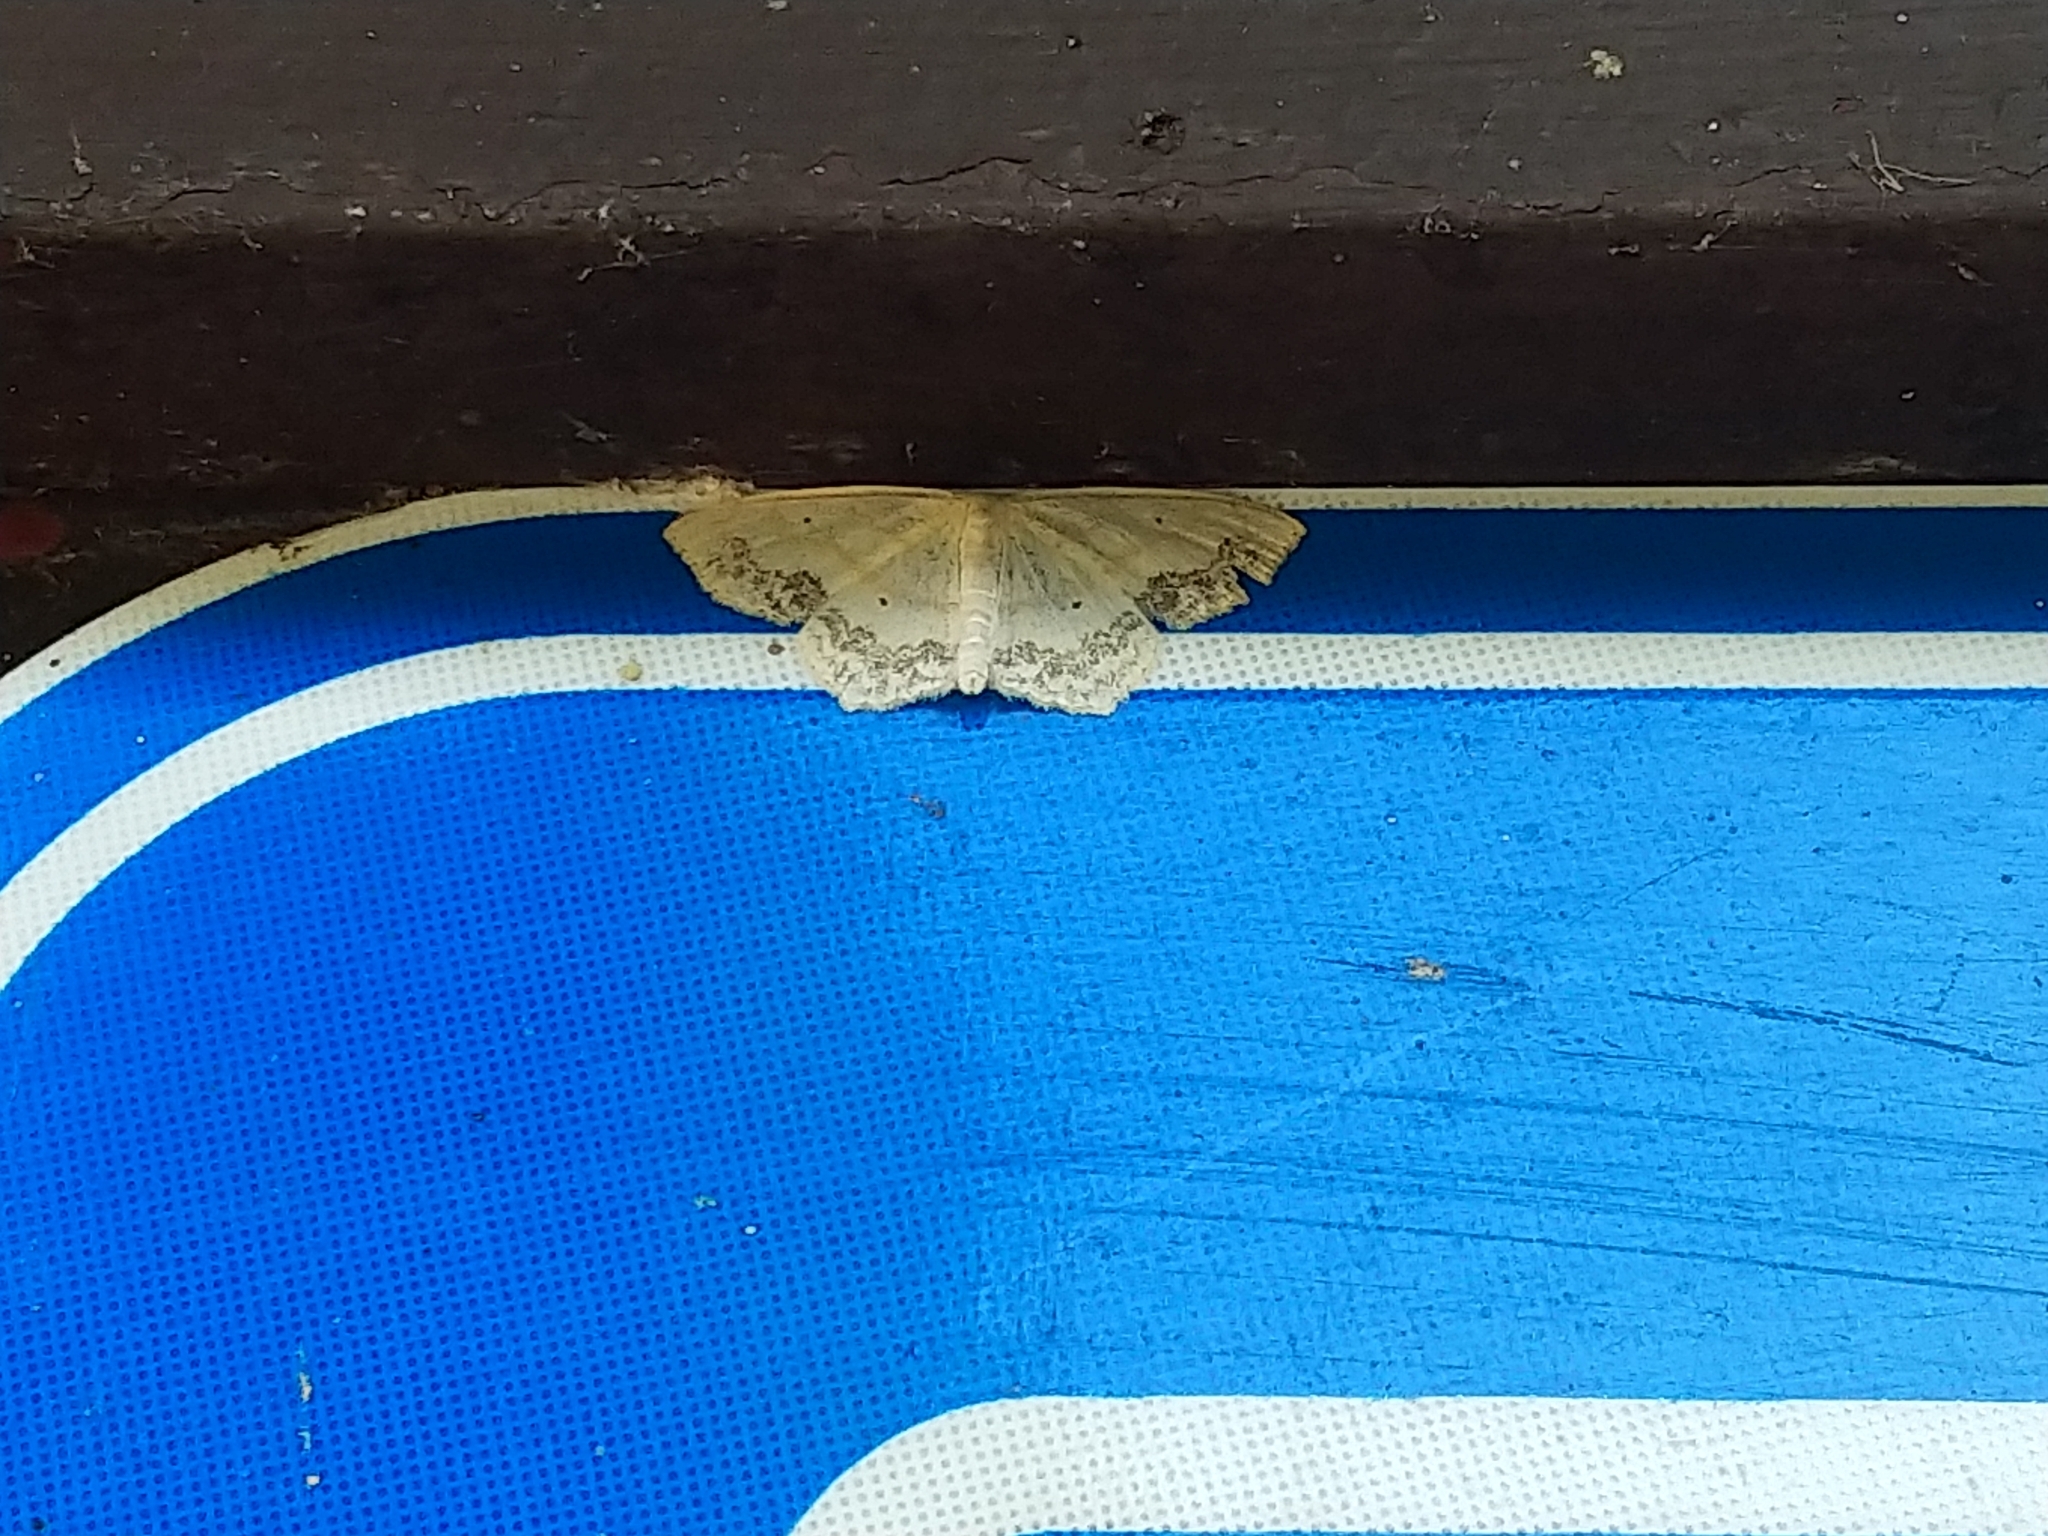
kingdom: Animalia
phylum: Arthropoda
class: Insecta
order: Lepidoptera
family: Geometridae
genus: Scopula
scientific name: Scopula limboundata
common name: Large lace border
